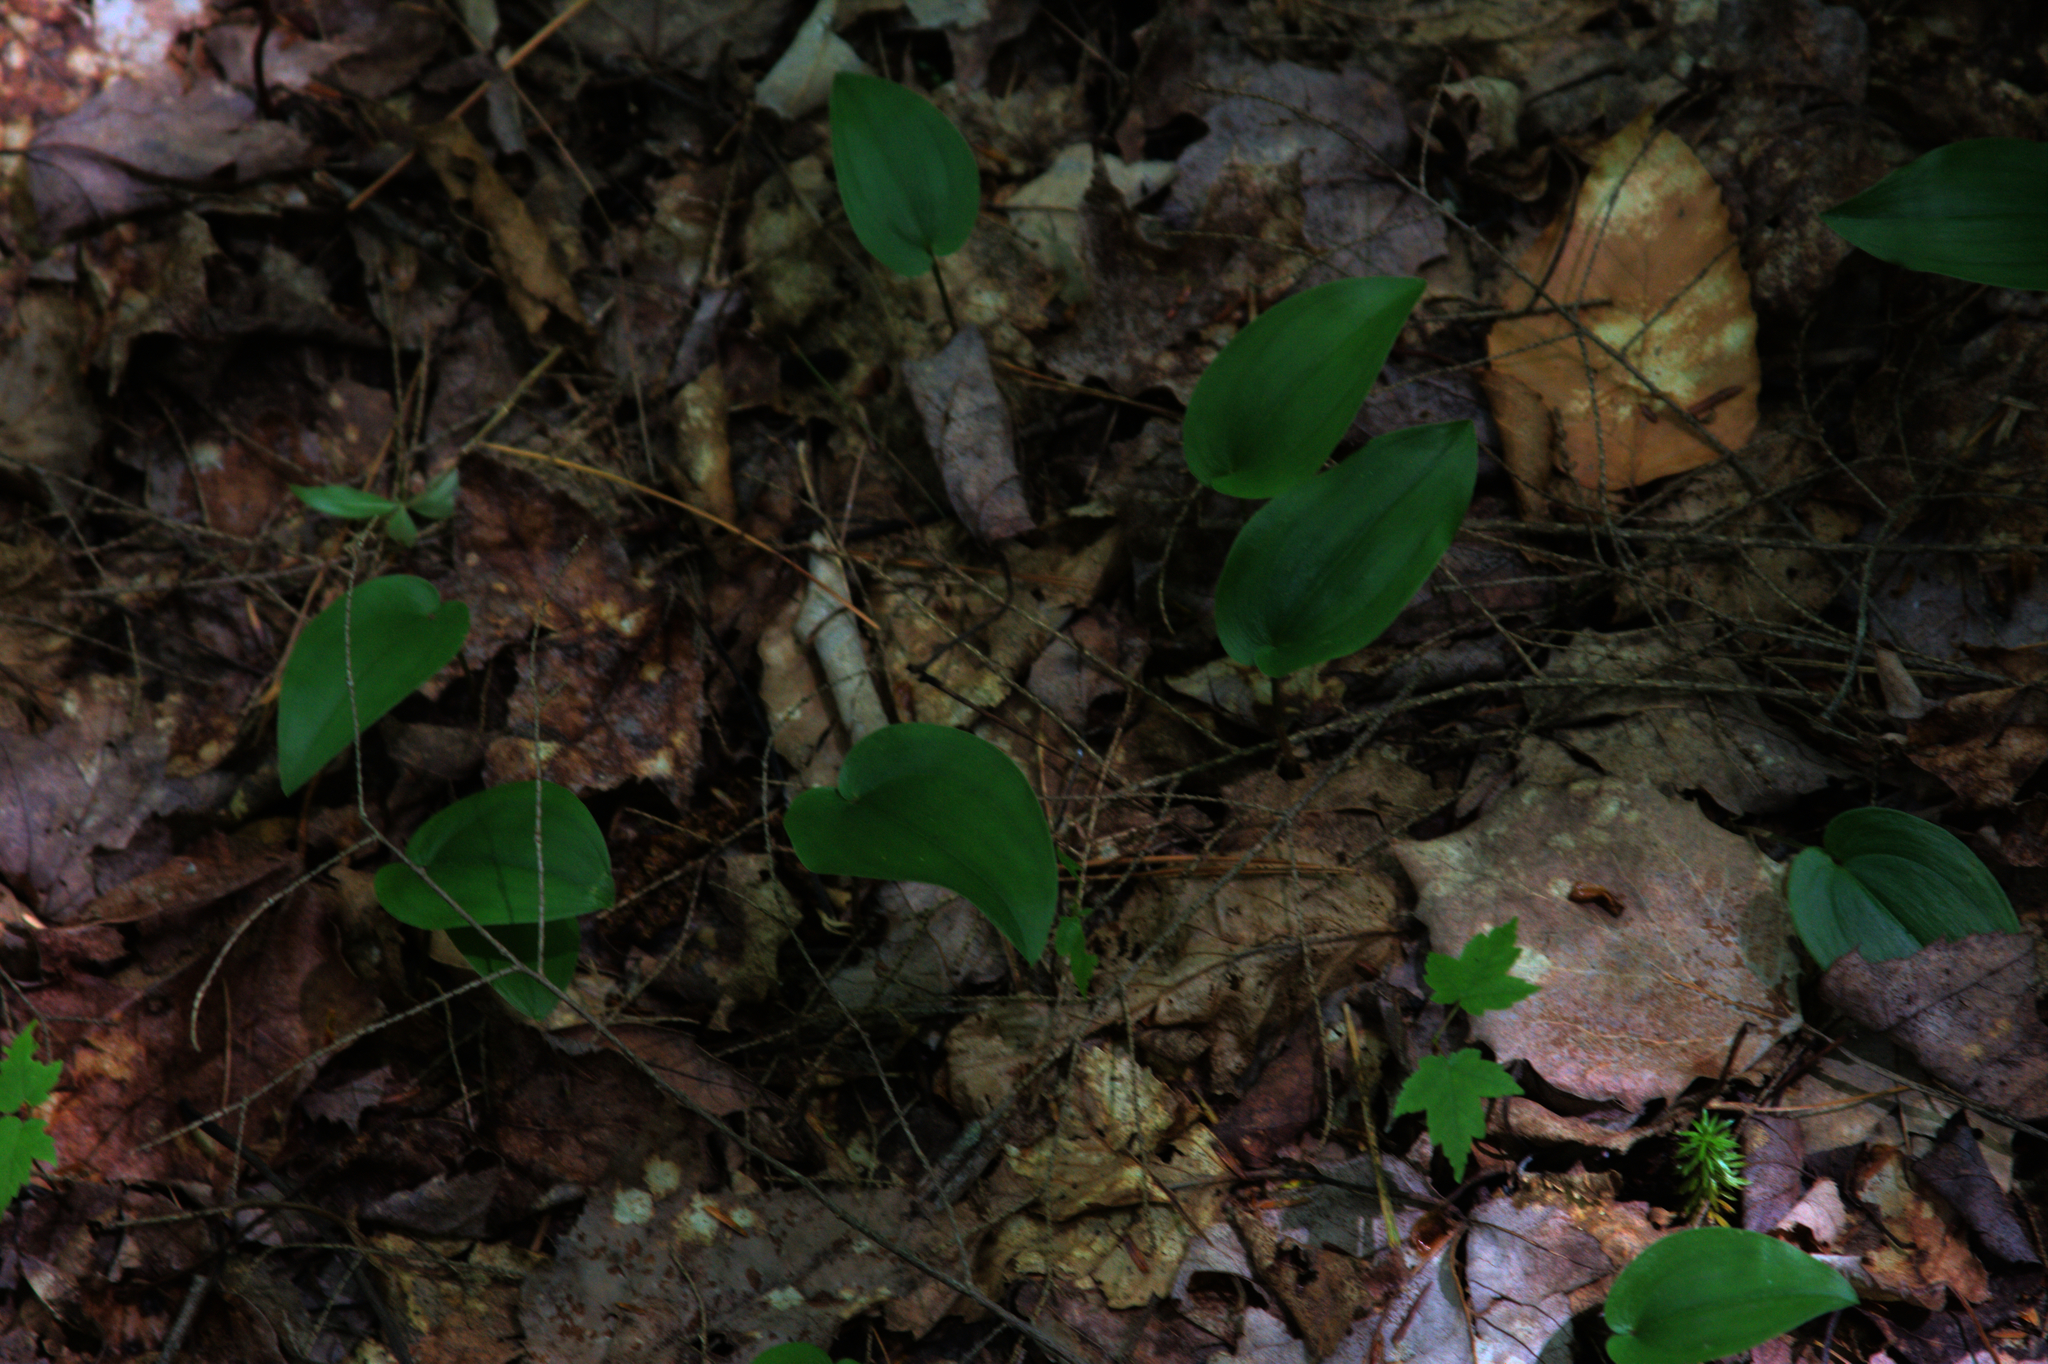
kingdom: Plantae
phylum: Tracheophyta
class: Liliopsida
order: Asparagales
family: Asparagaceae
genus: Maianthemum
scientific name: Maianthemum canadense
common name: False lily-of-the-valley
